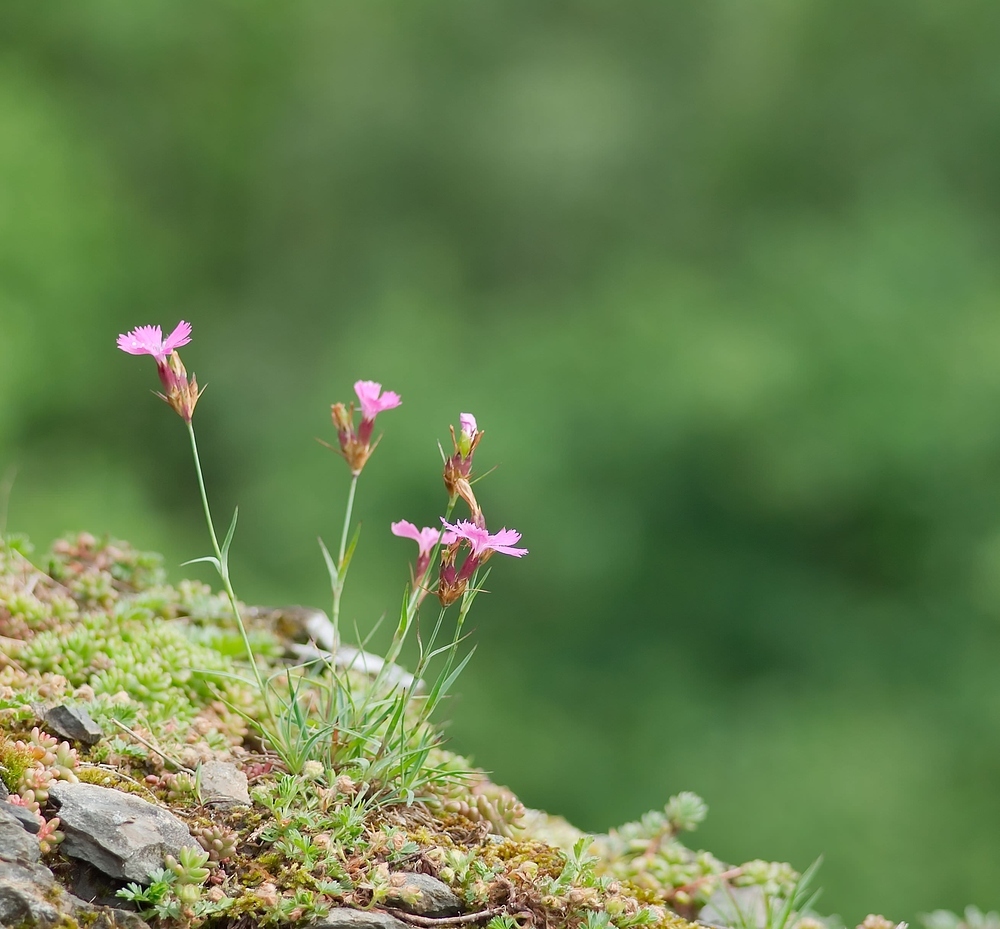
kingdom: Plantae
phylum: Tracheophyta
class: Magnoliopsida
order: Caryophyllales
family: Caryophyllaceae
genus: Dianthus
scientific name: Dianthus carthusianorum
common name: Carthusian pink
